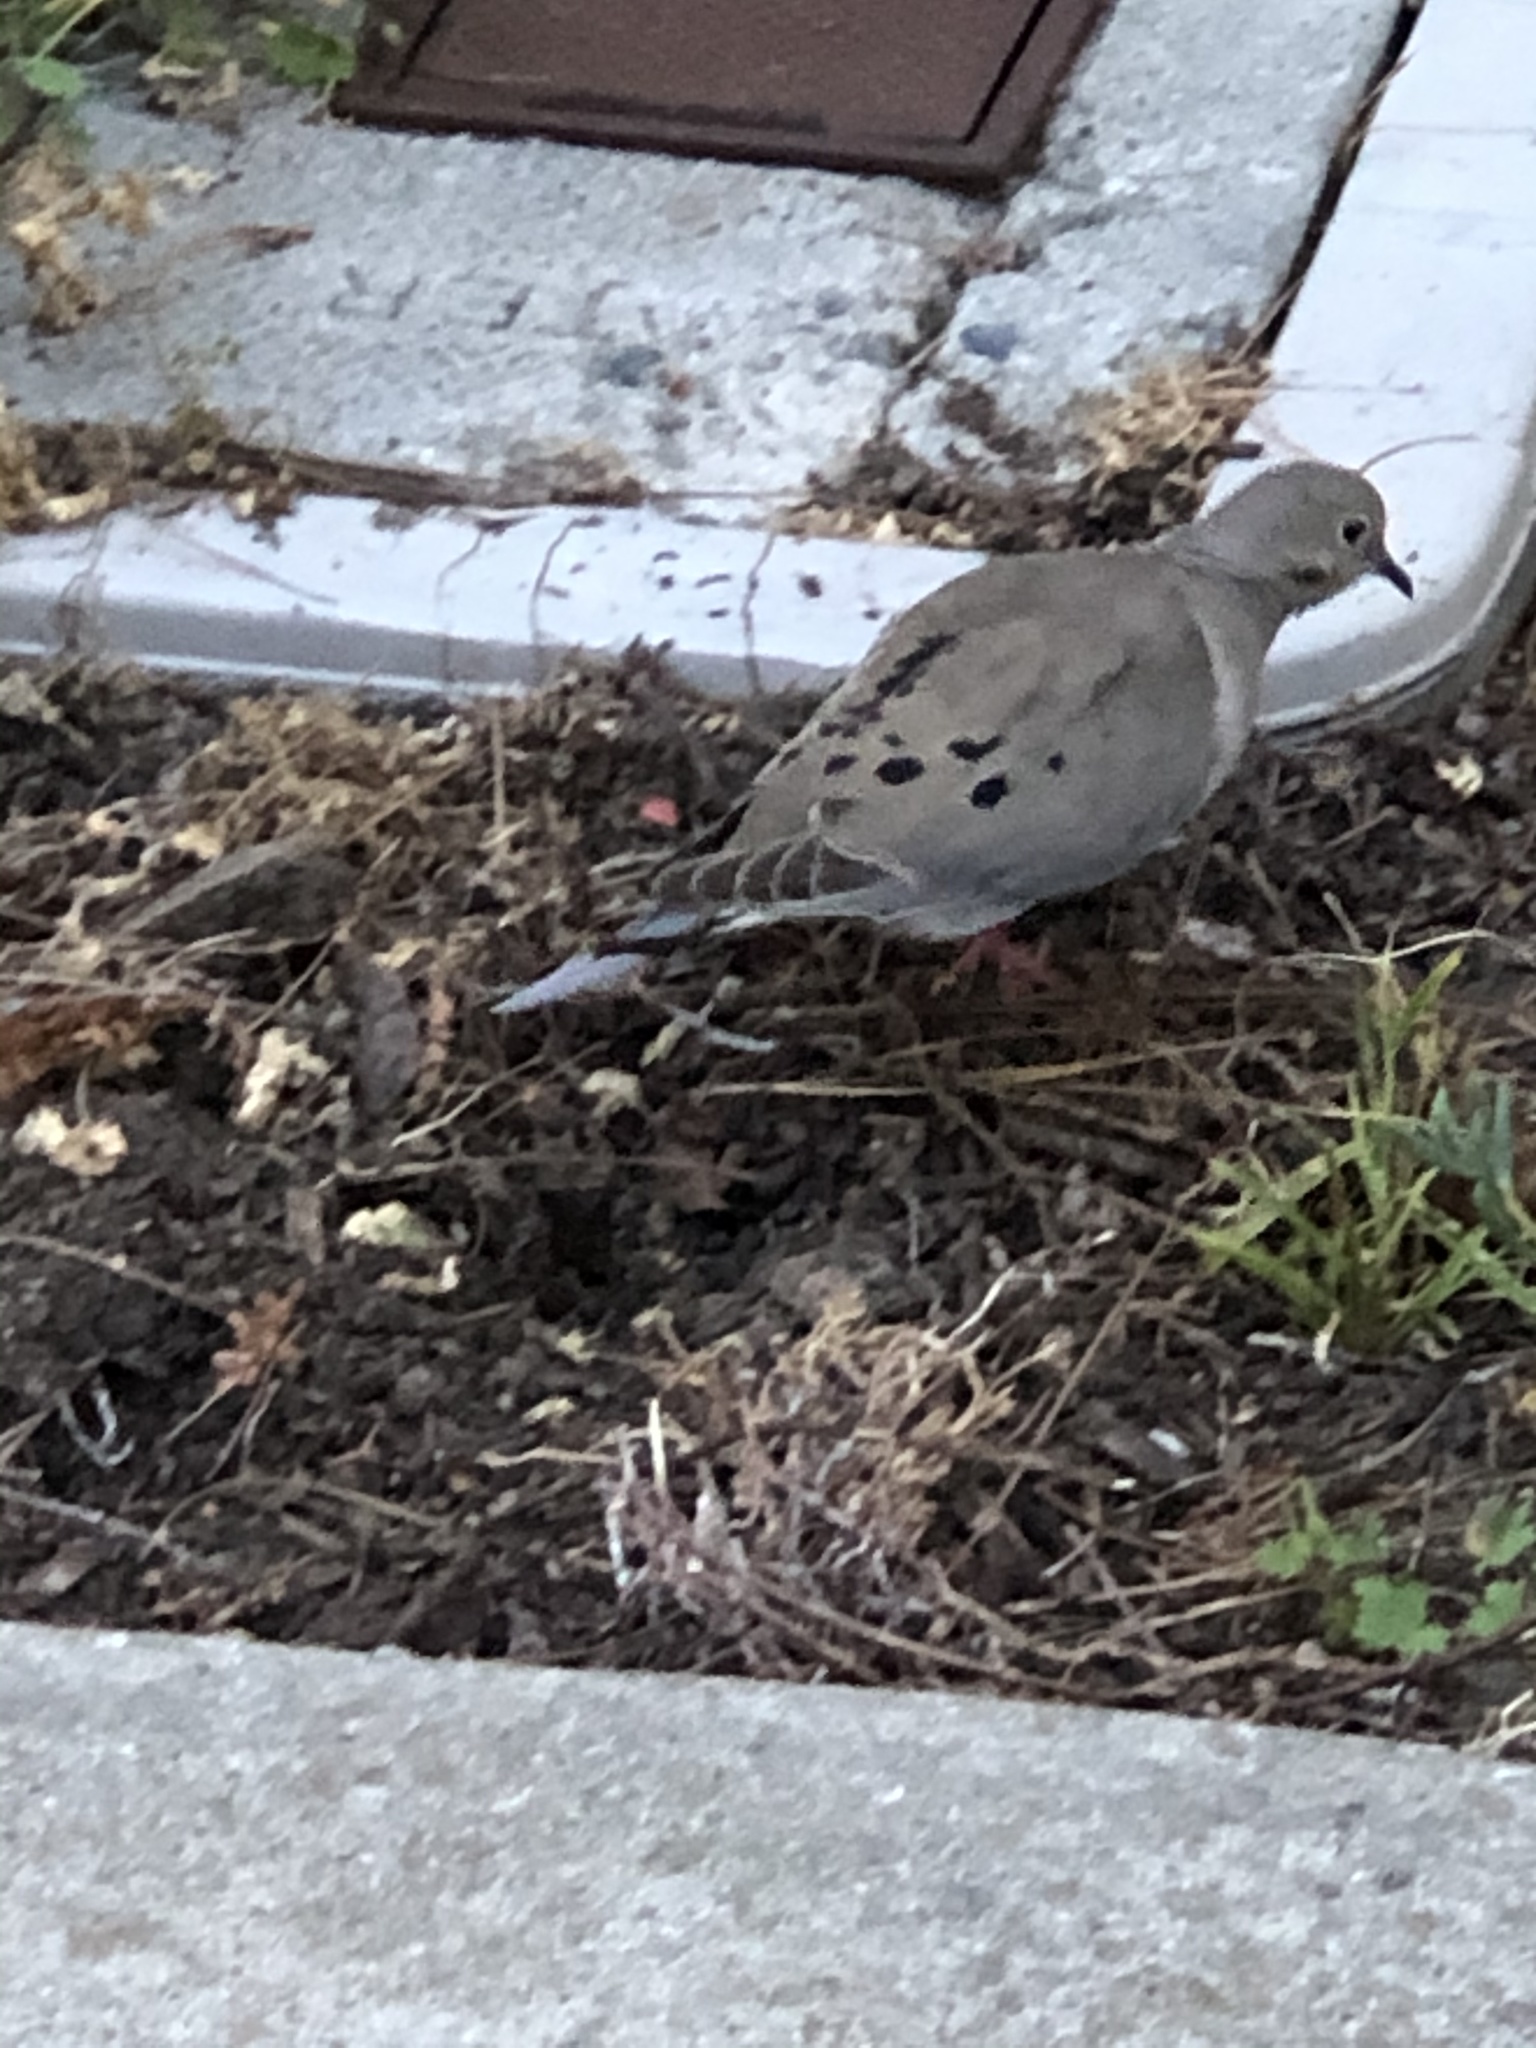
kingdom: Animalia
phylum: Chordata
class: Aves
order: Columbiformes
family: Columbidae
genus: Zenaida
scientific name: Zenaida macroura
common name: Mourning dove
